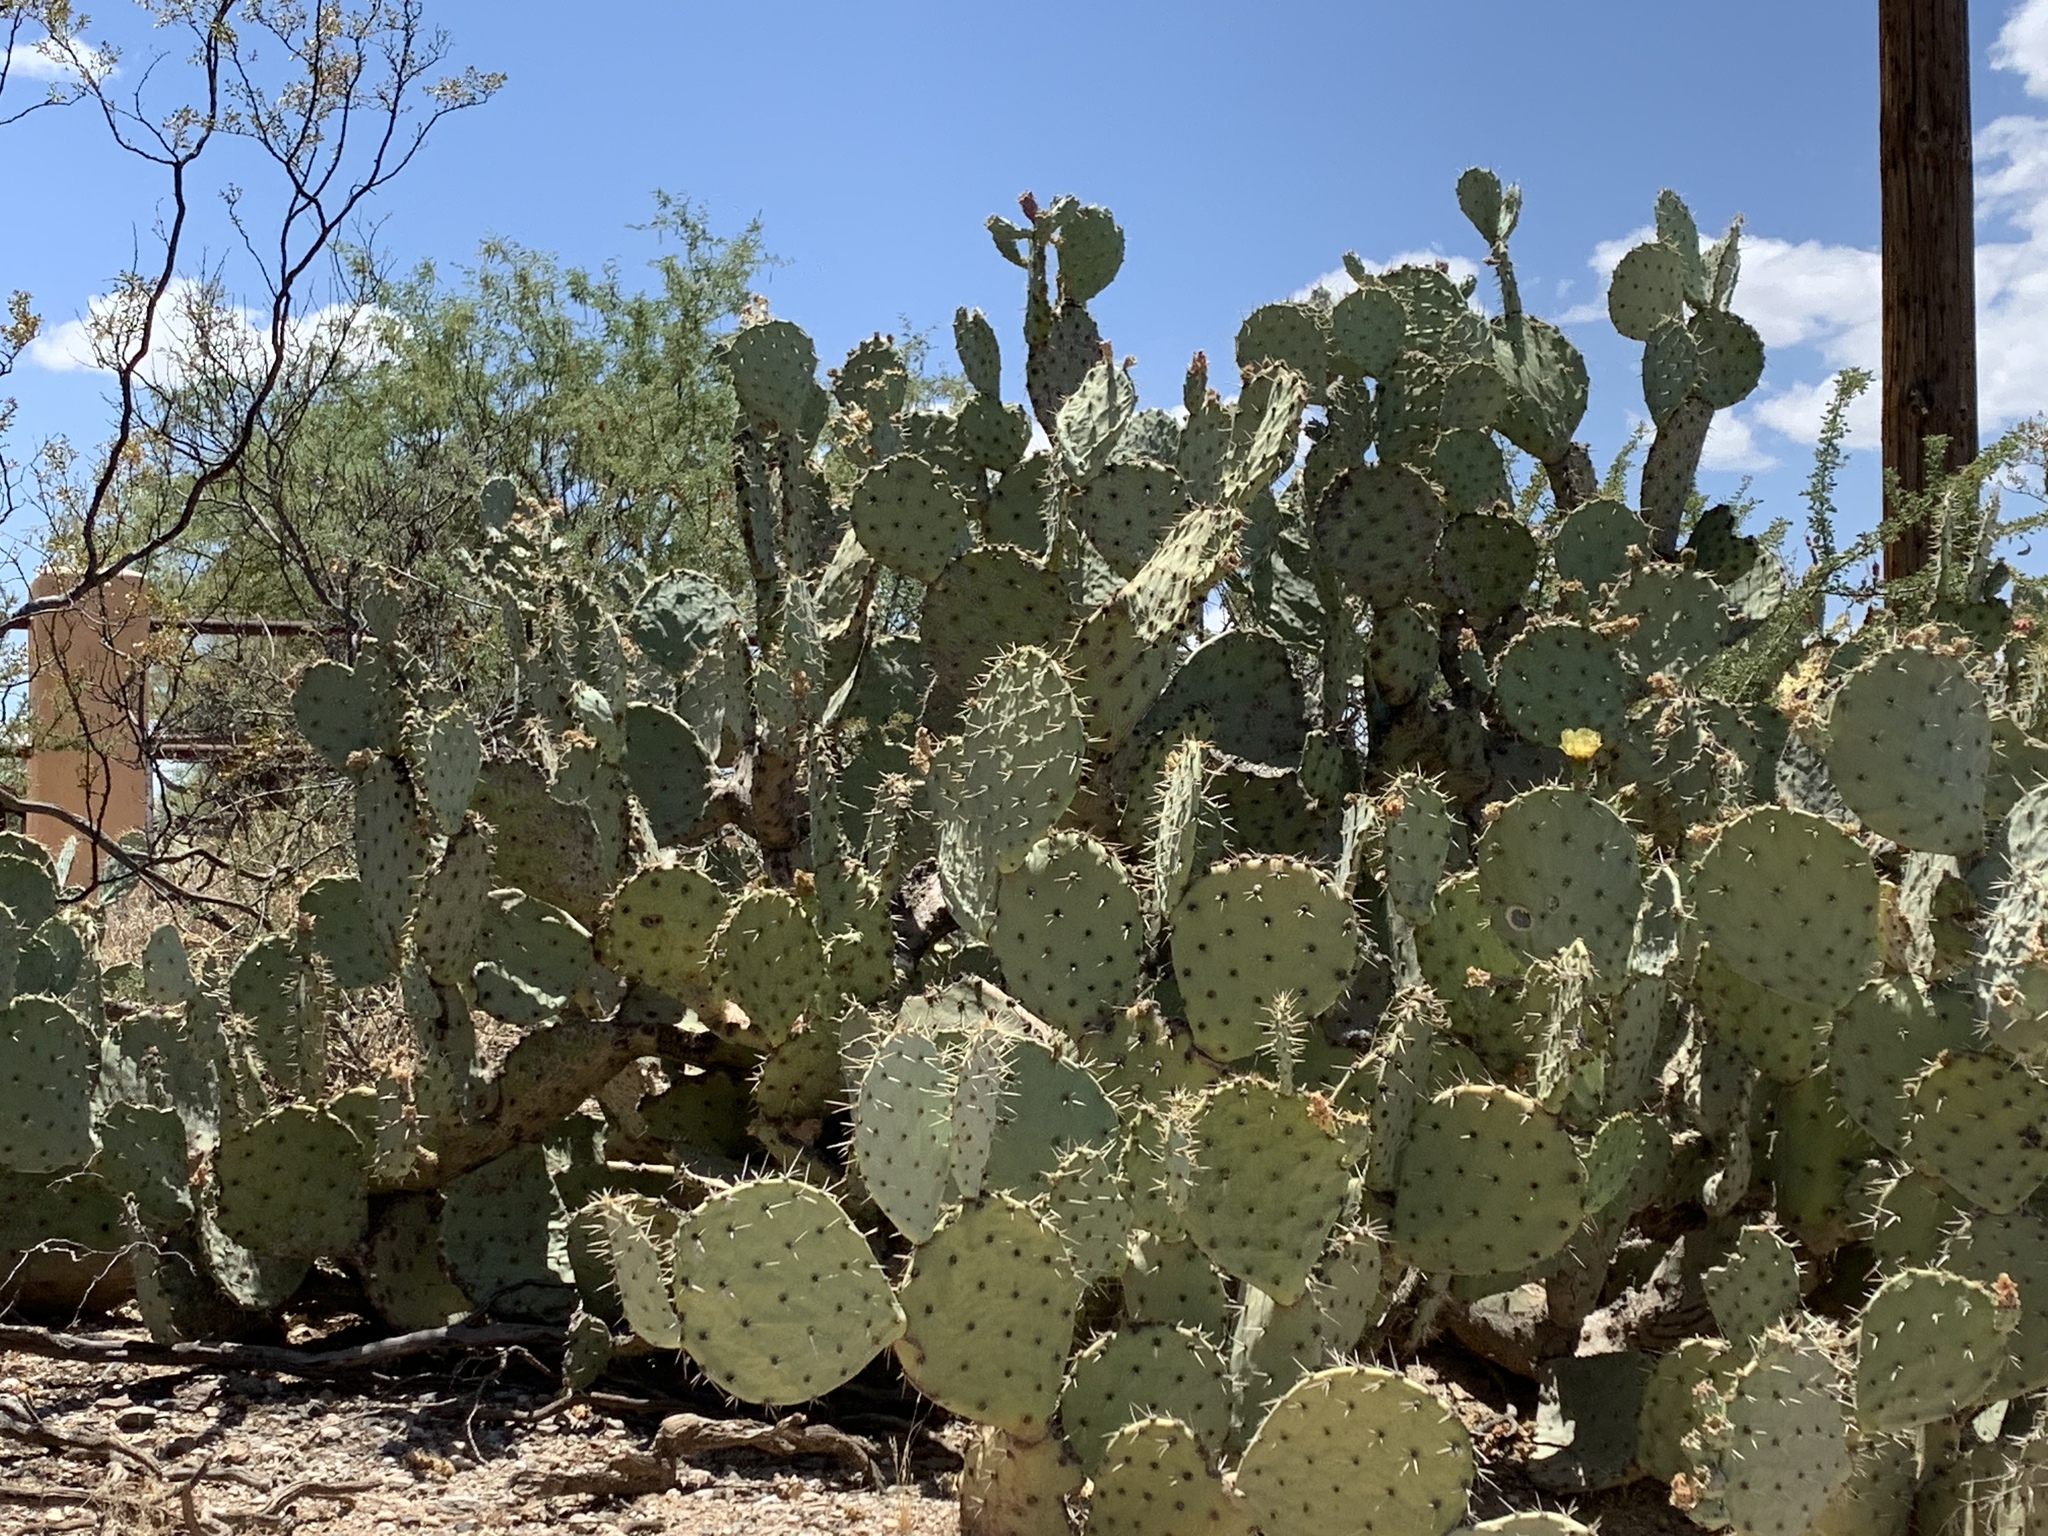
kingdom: Plantae
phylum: Tracheophyta
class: Magnoliopsida
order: Caryophyllales
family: Cactaceae
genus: Opuntia
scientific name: Opuntia engelmannii
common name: Cactus-apple
